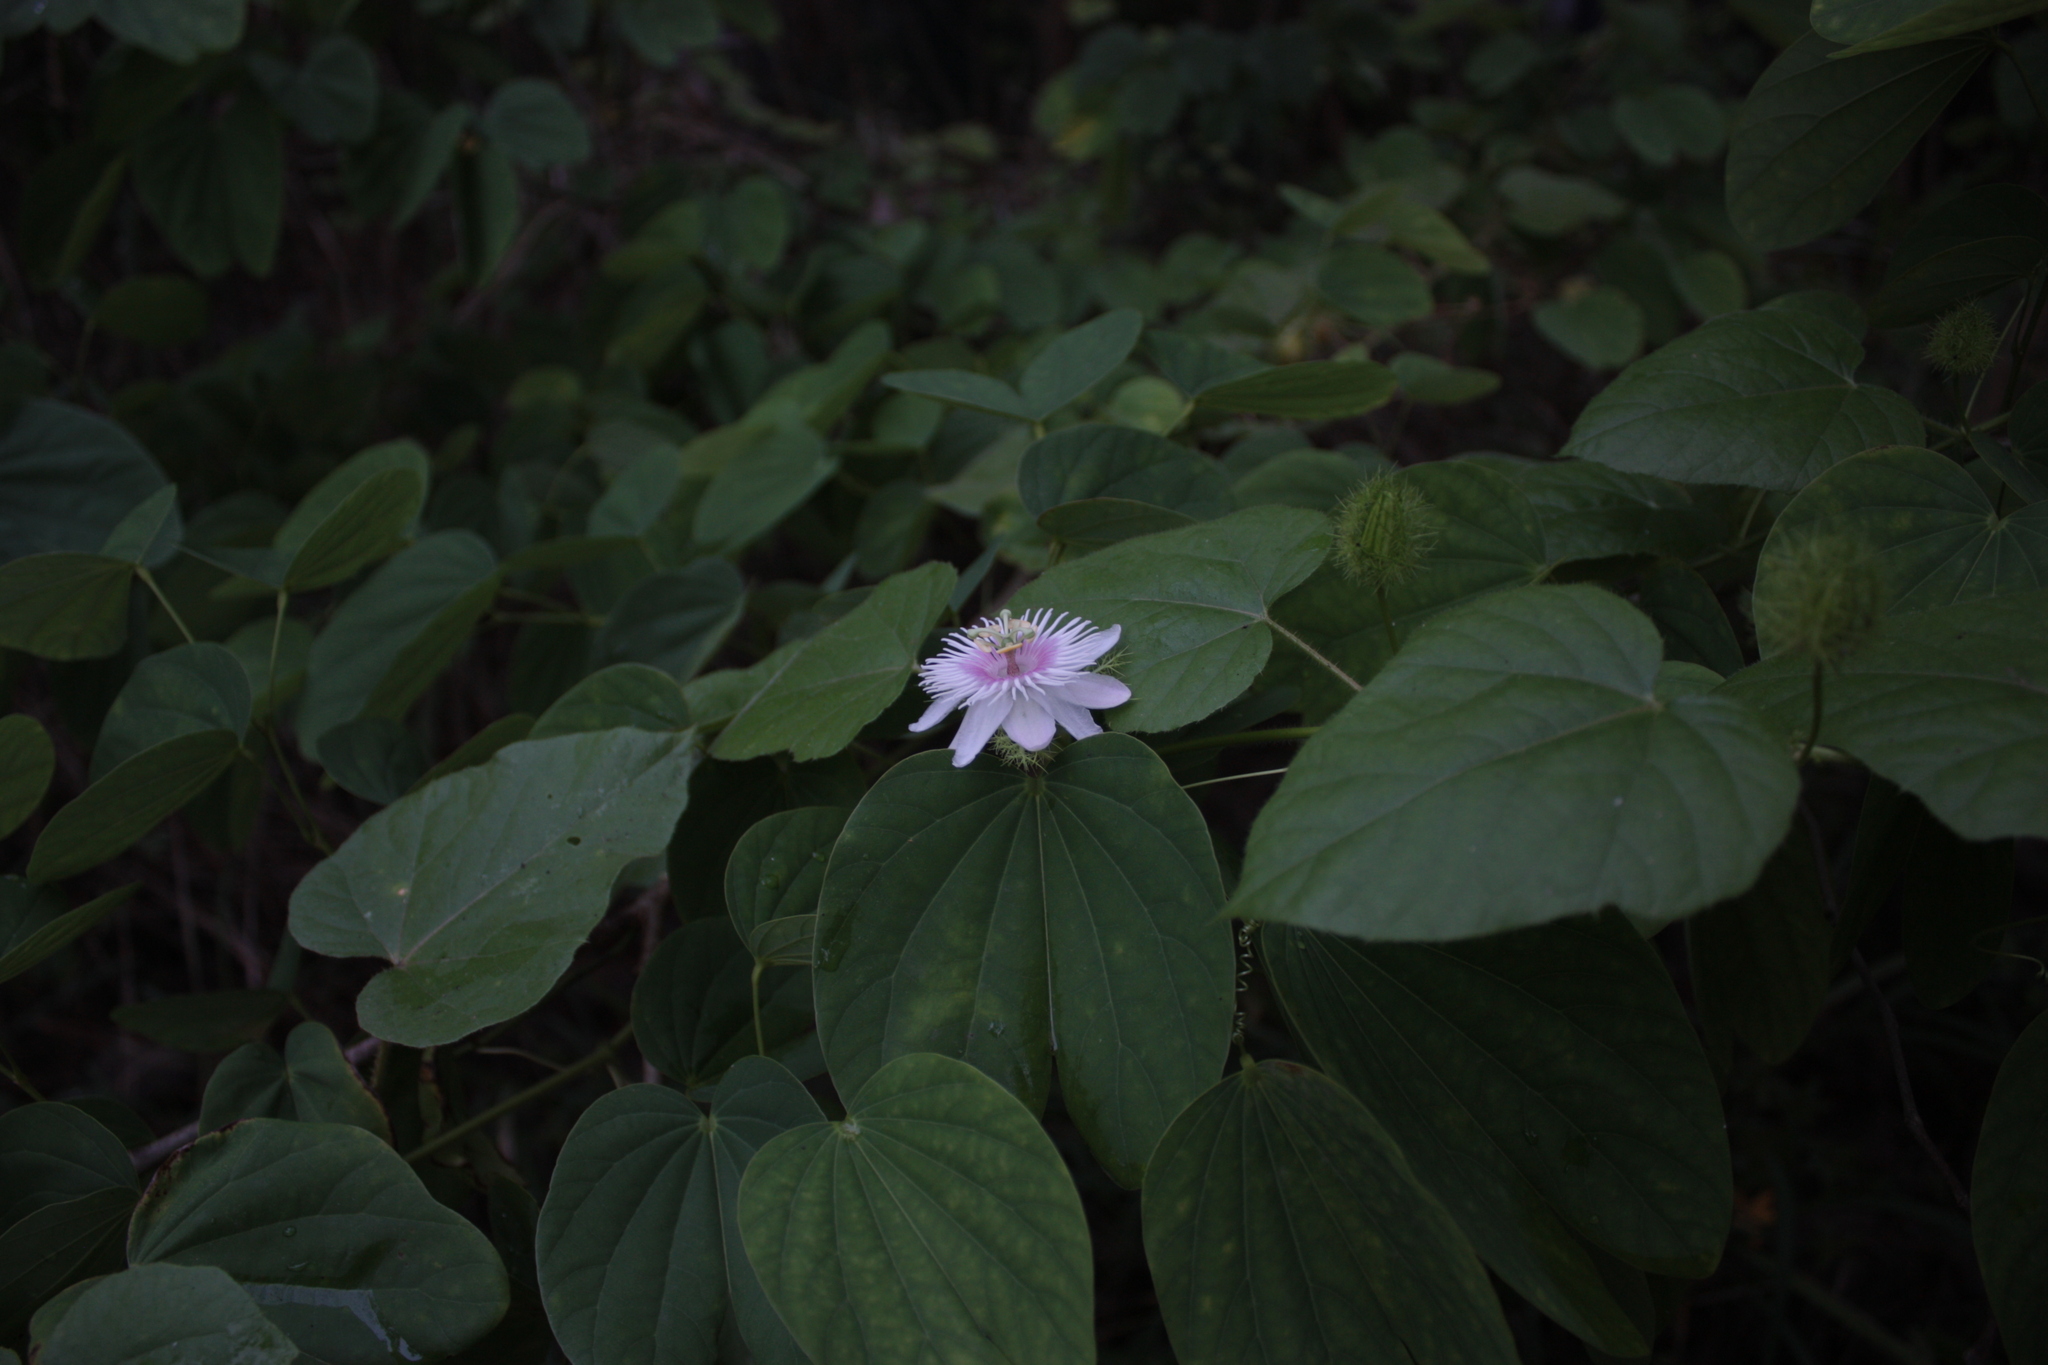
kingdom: Plantae
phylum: Tracheophyta
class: Magnoliopsida
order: Malpighiales
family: Passifloraceae
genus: Passiflora
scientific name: Passiflora vesicaria
